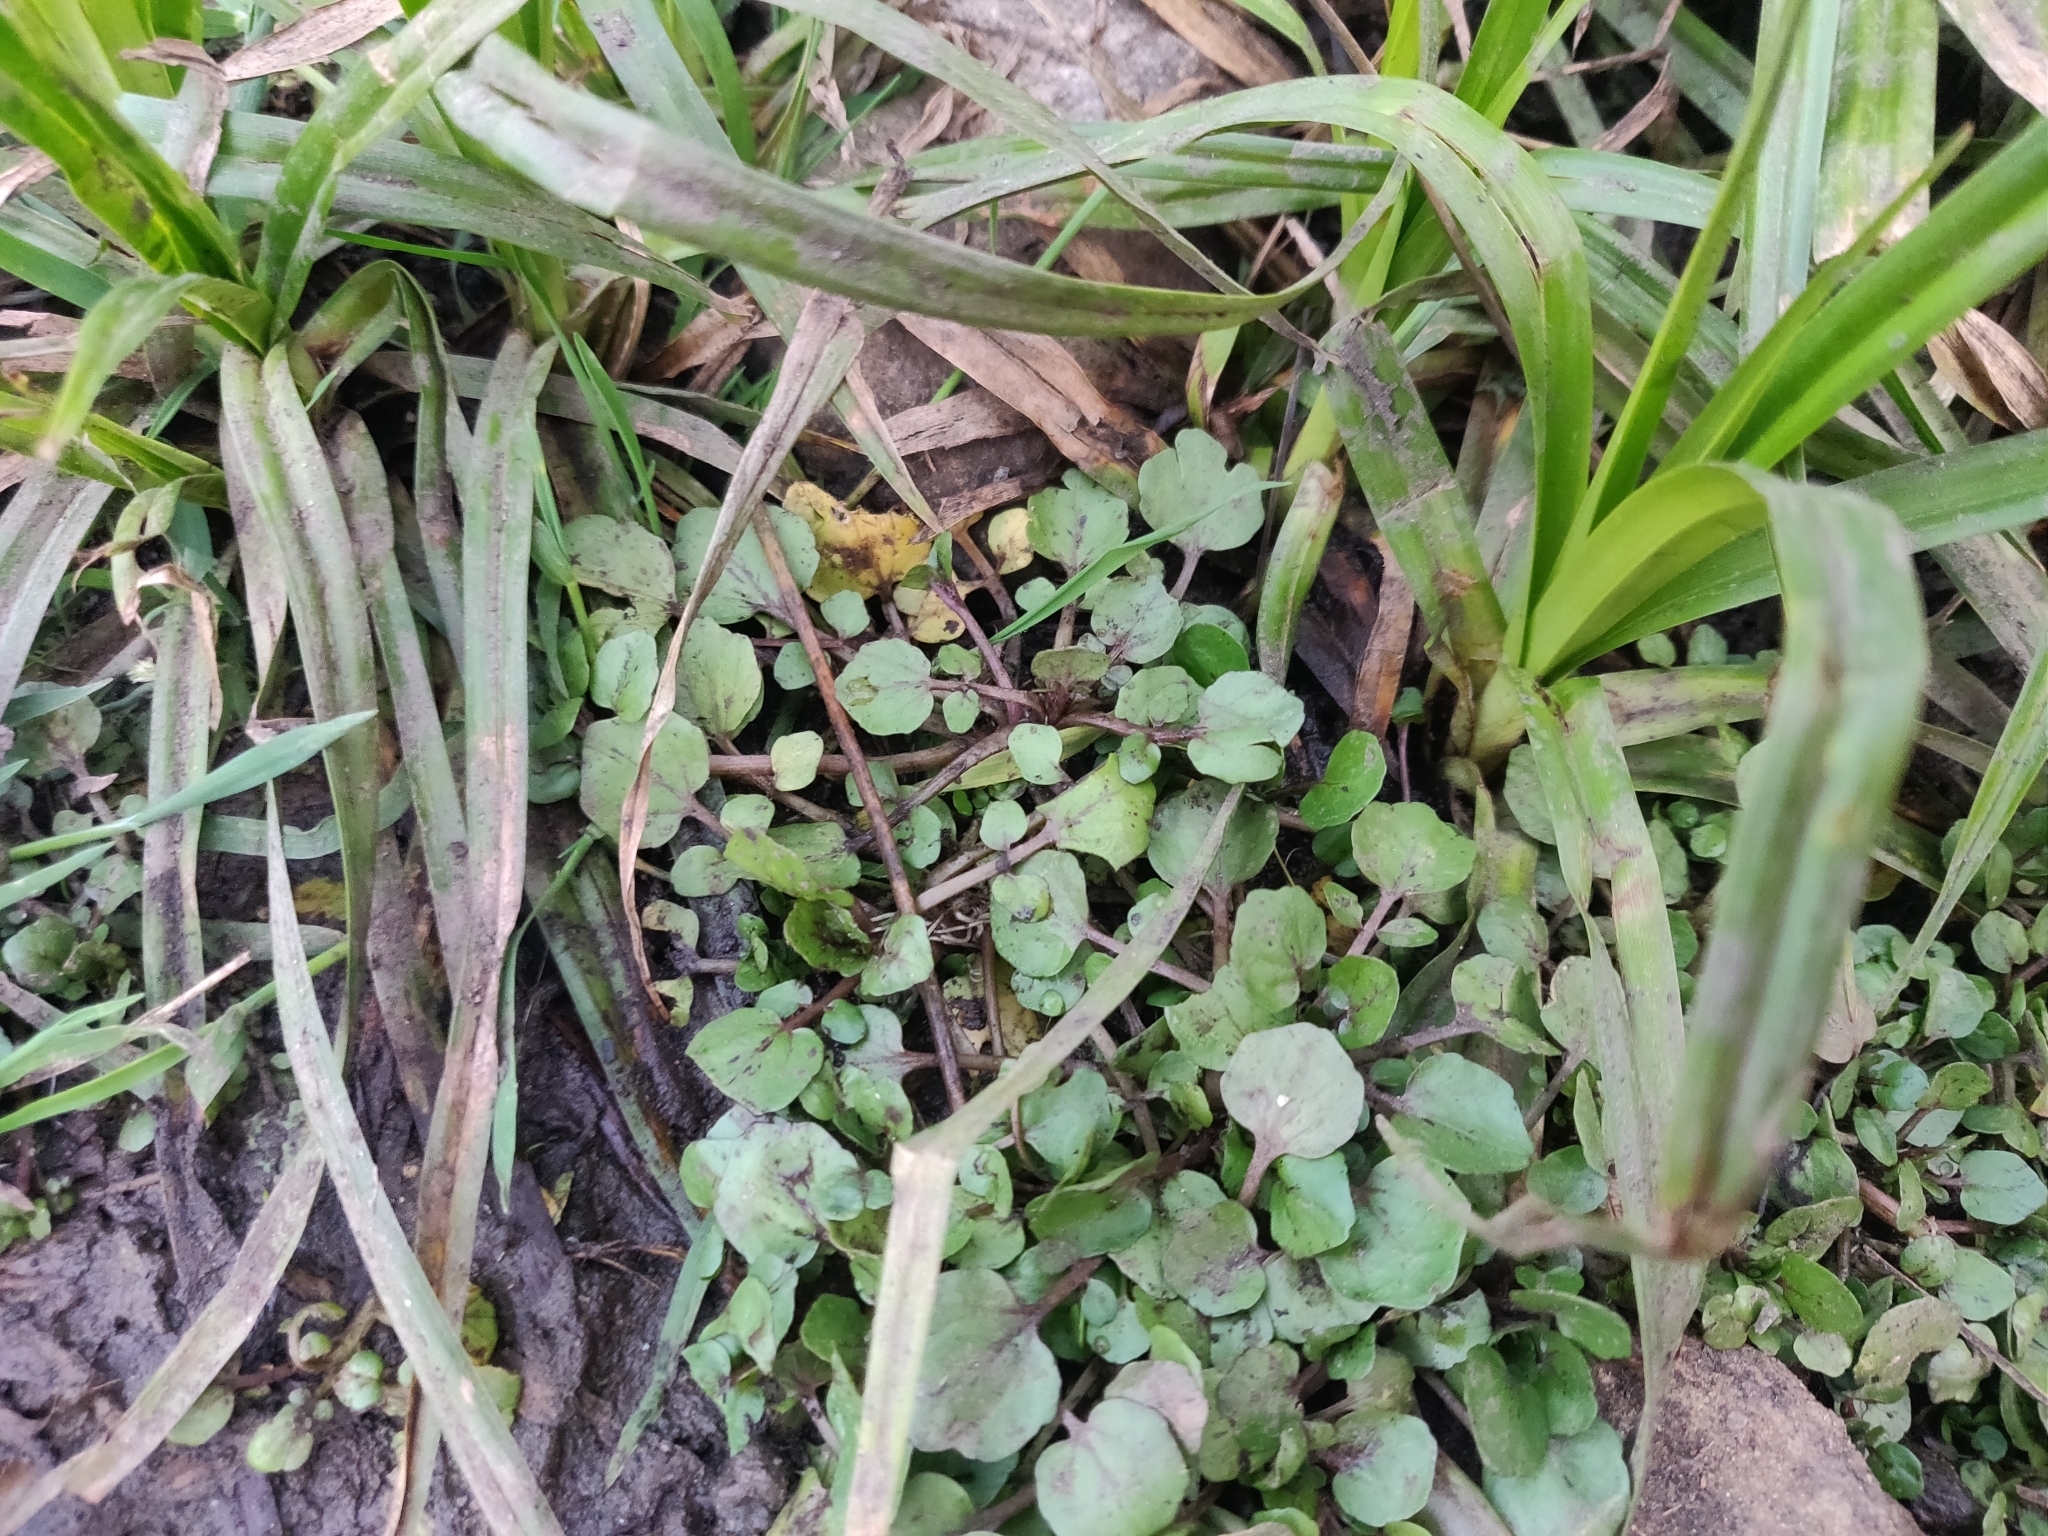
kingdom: Plantae
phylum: Tracheophyta
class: Magnoliopsida
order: Brassicales
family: Brassicaceae
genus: Nasturtium
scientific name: Nasturtium officinale
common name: Watercress
